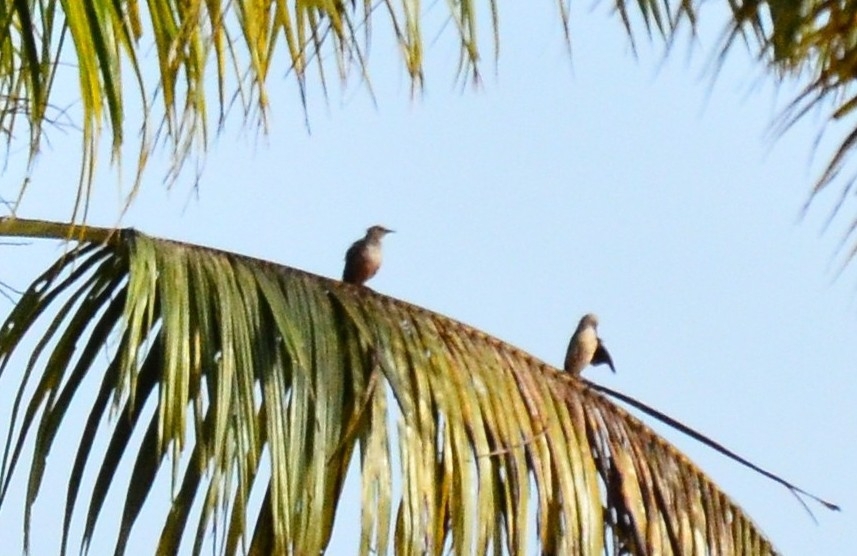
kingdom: Animalia
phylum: Chordata
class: Aves
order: Passeriformes
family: Sturnidae
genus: Sturnia
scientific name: Sturnia malabarica
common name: Chestnut-tailed starling
